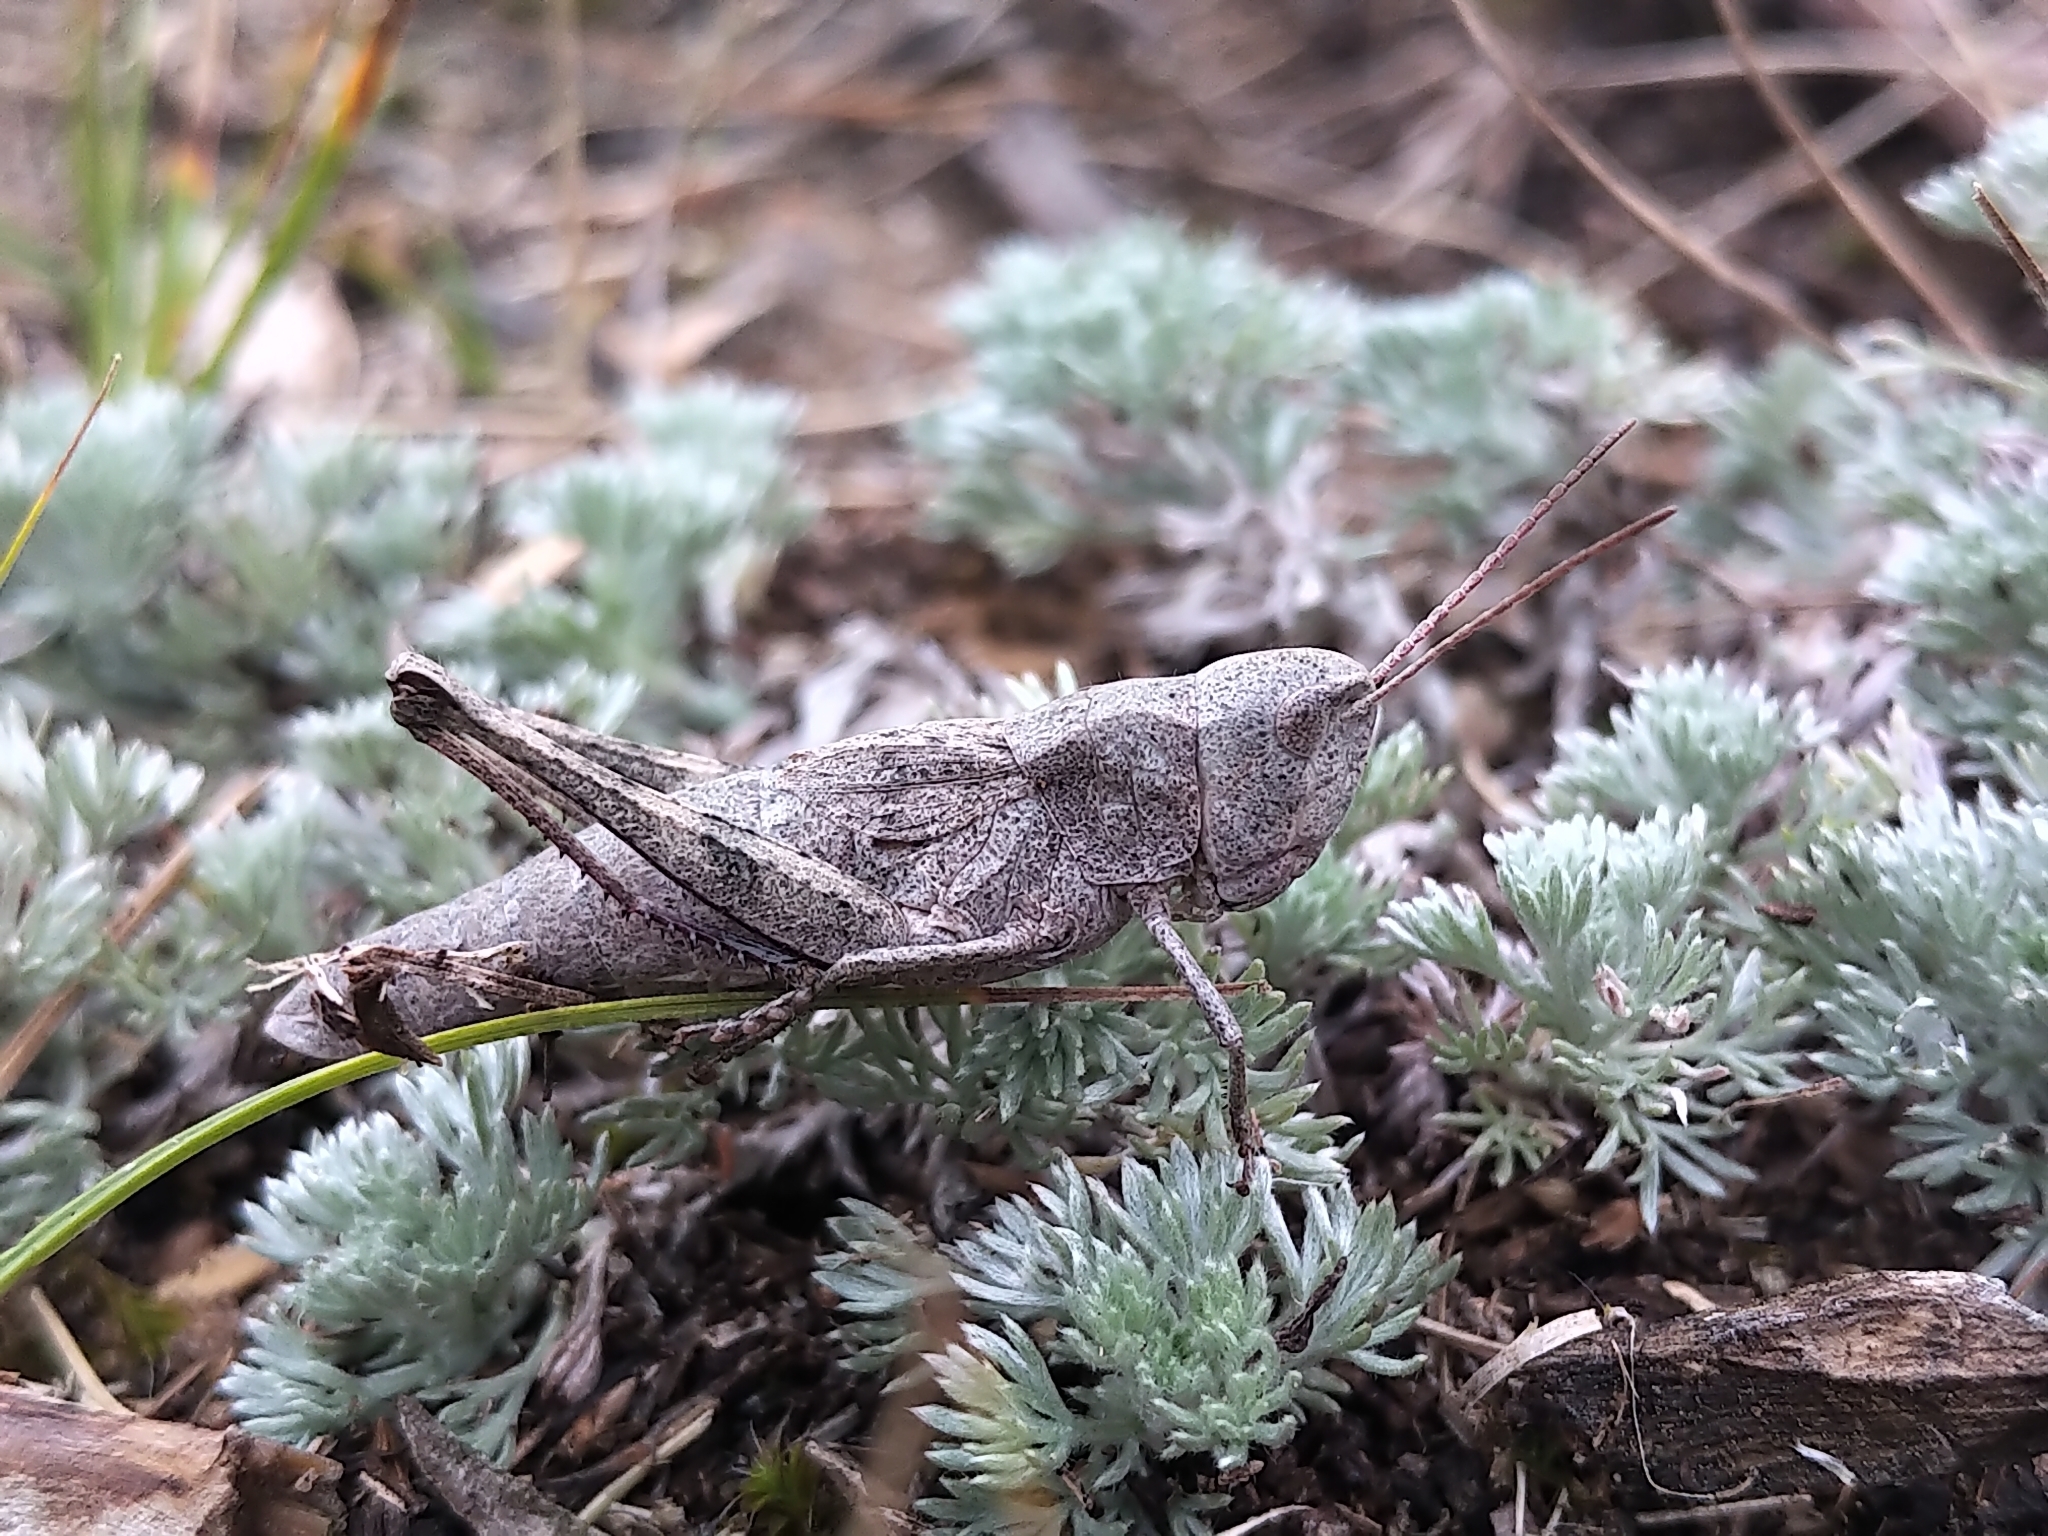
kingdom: Animalia
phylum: Arthropoda
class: Insecta
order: Orthoptera
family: Acrididae
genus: Chloealtis
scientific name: Chloealtis abdominalis
